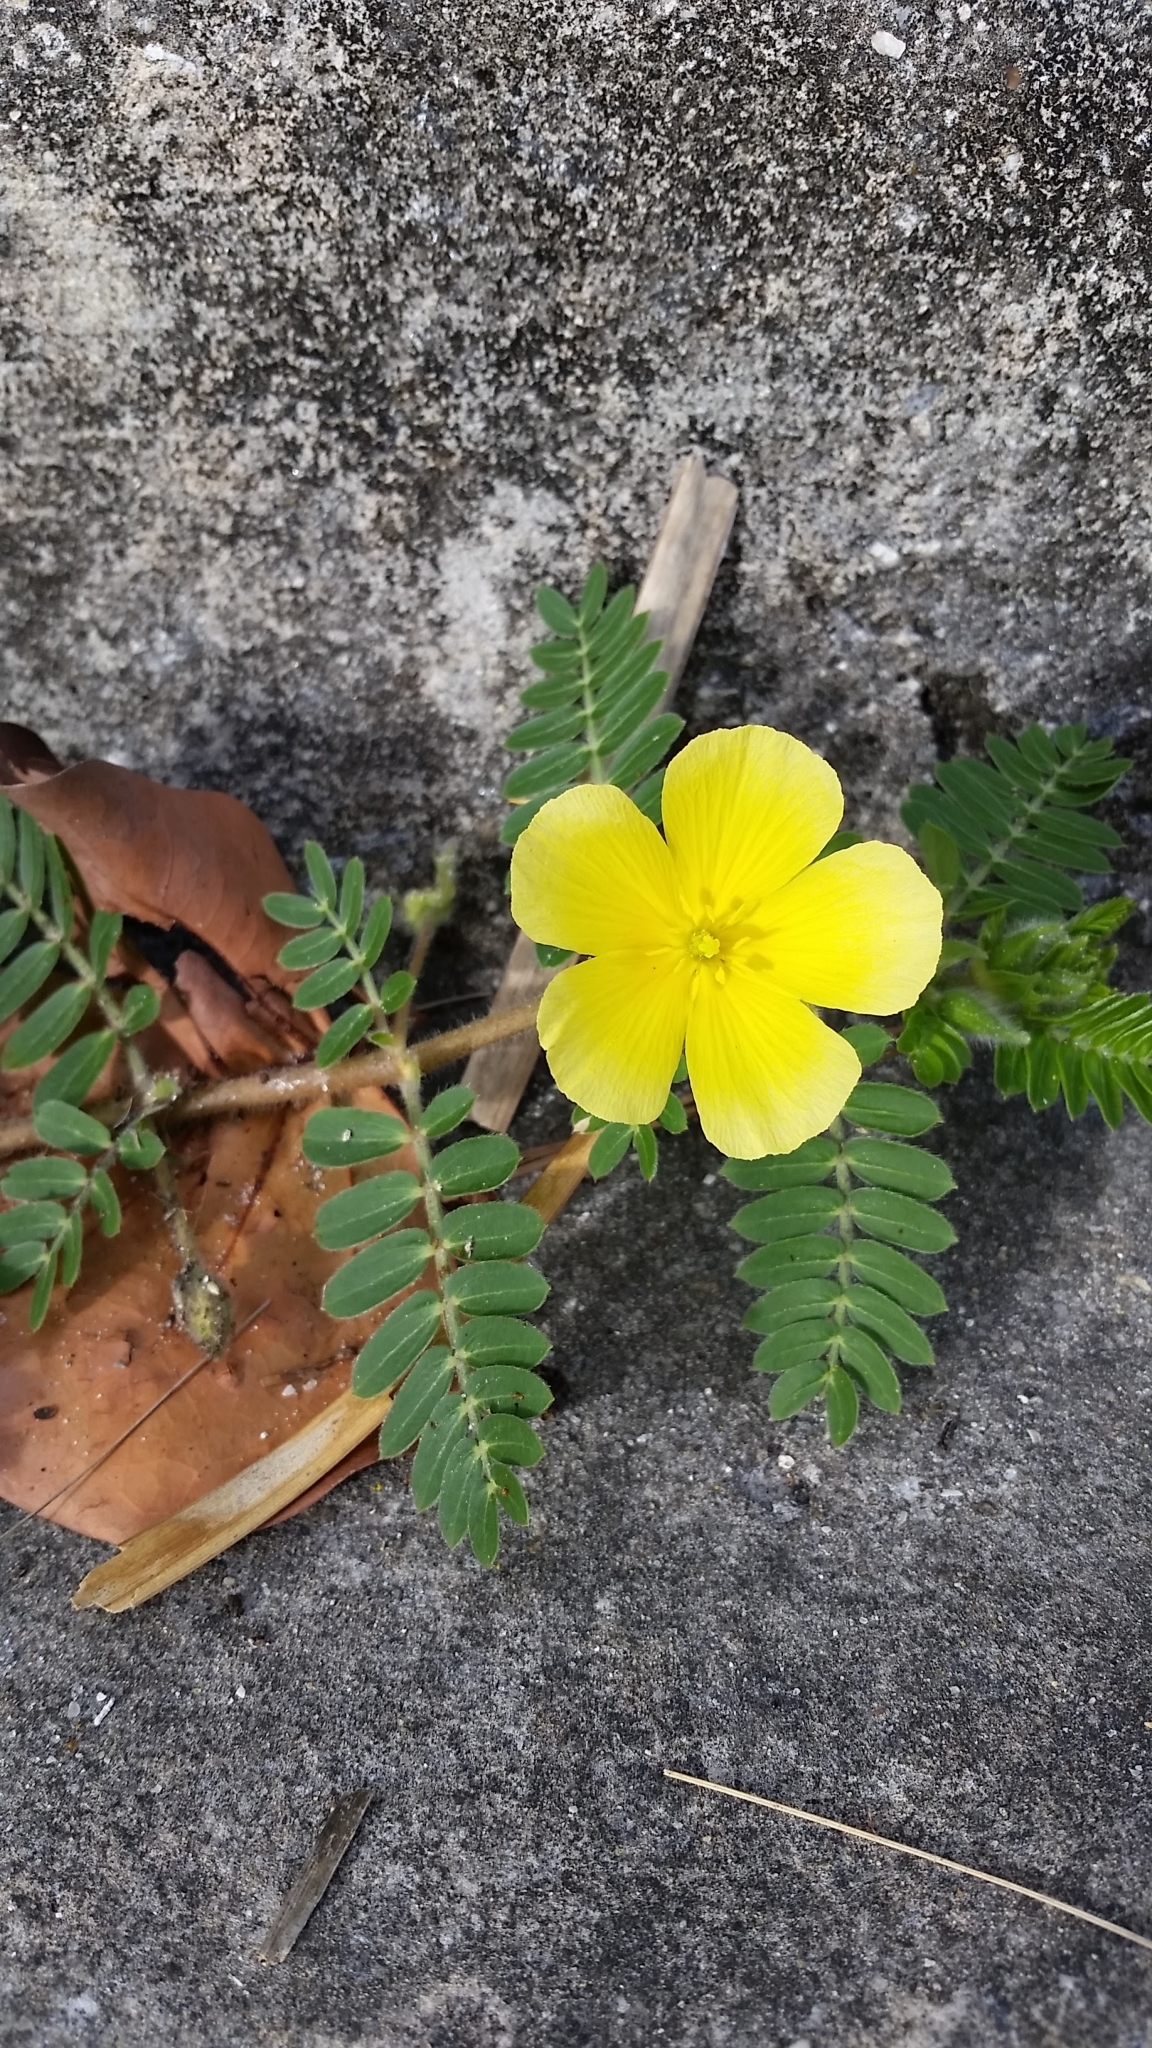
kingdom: Plantae
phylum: Tracheophyta
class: Magnoliopsida
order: Zygophyllales
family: Zygophyllaceae
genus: Tribulus
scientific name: Tribulus cistoides
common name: Jamaican feverplant
